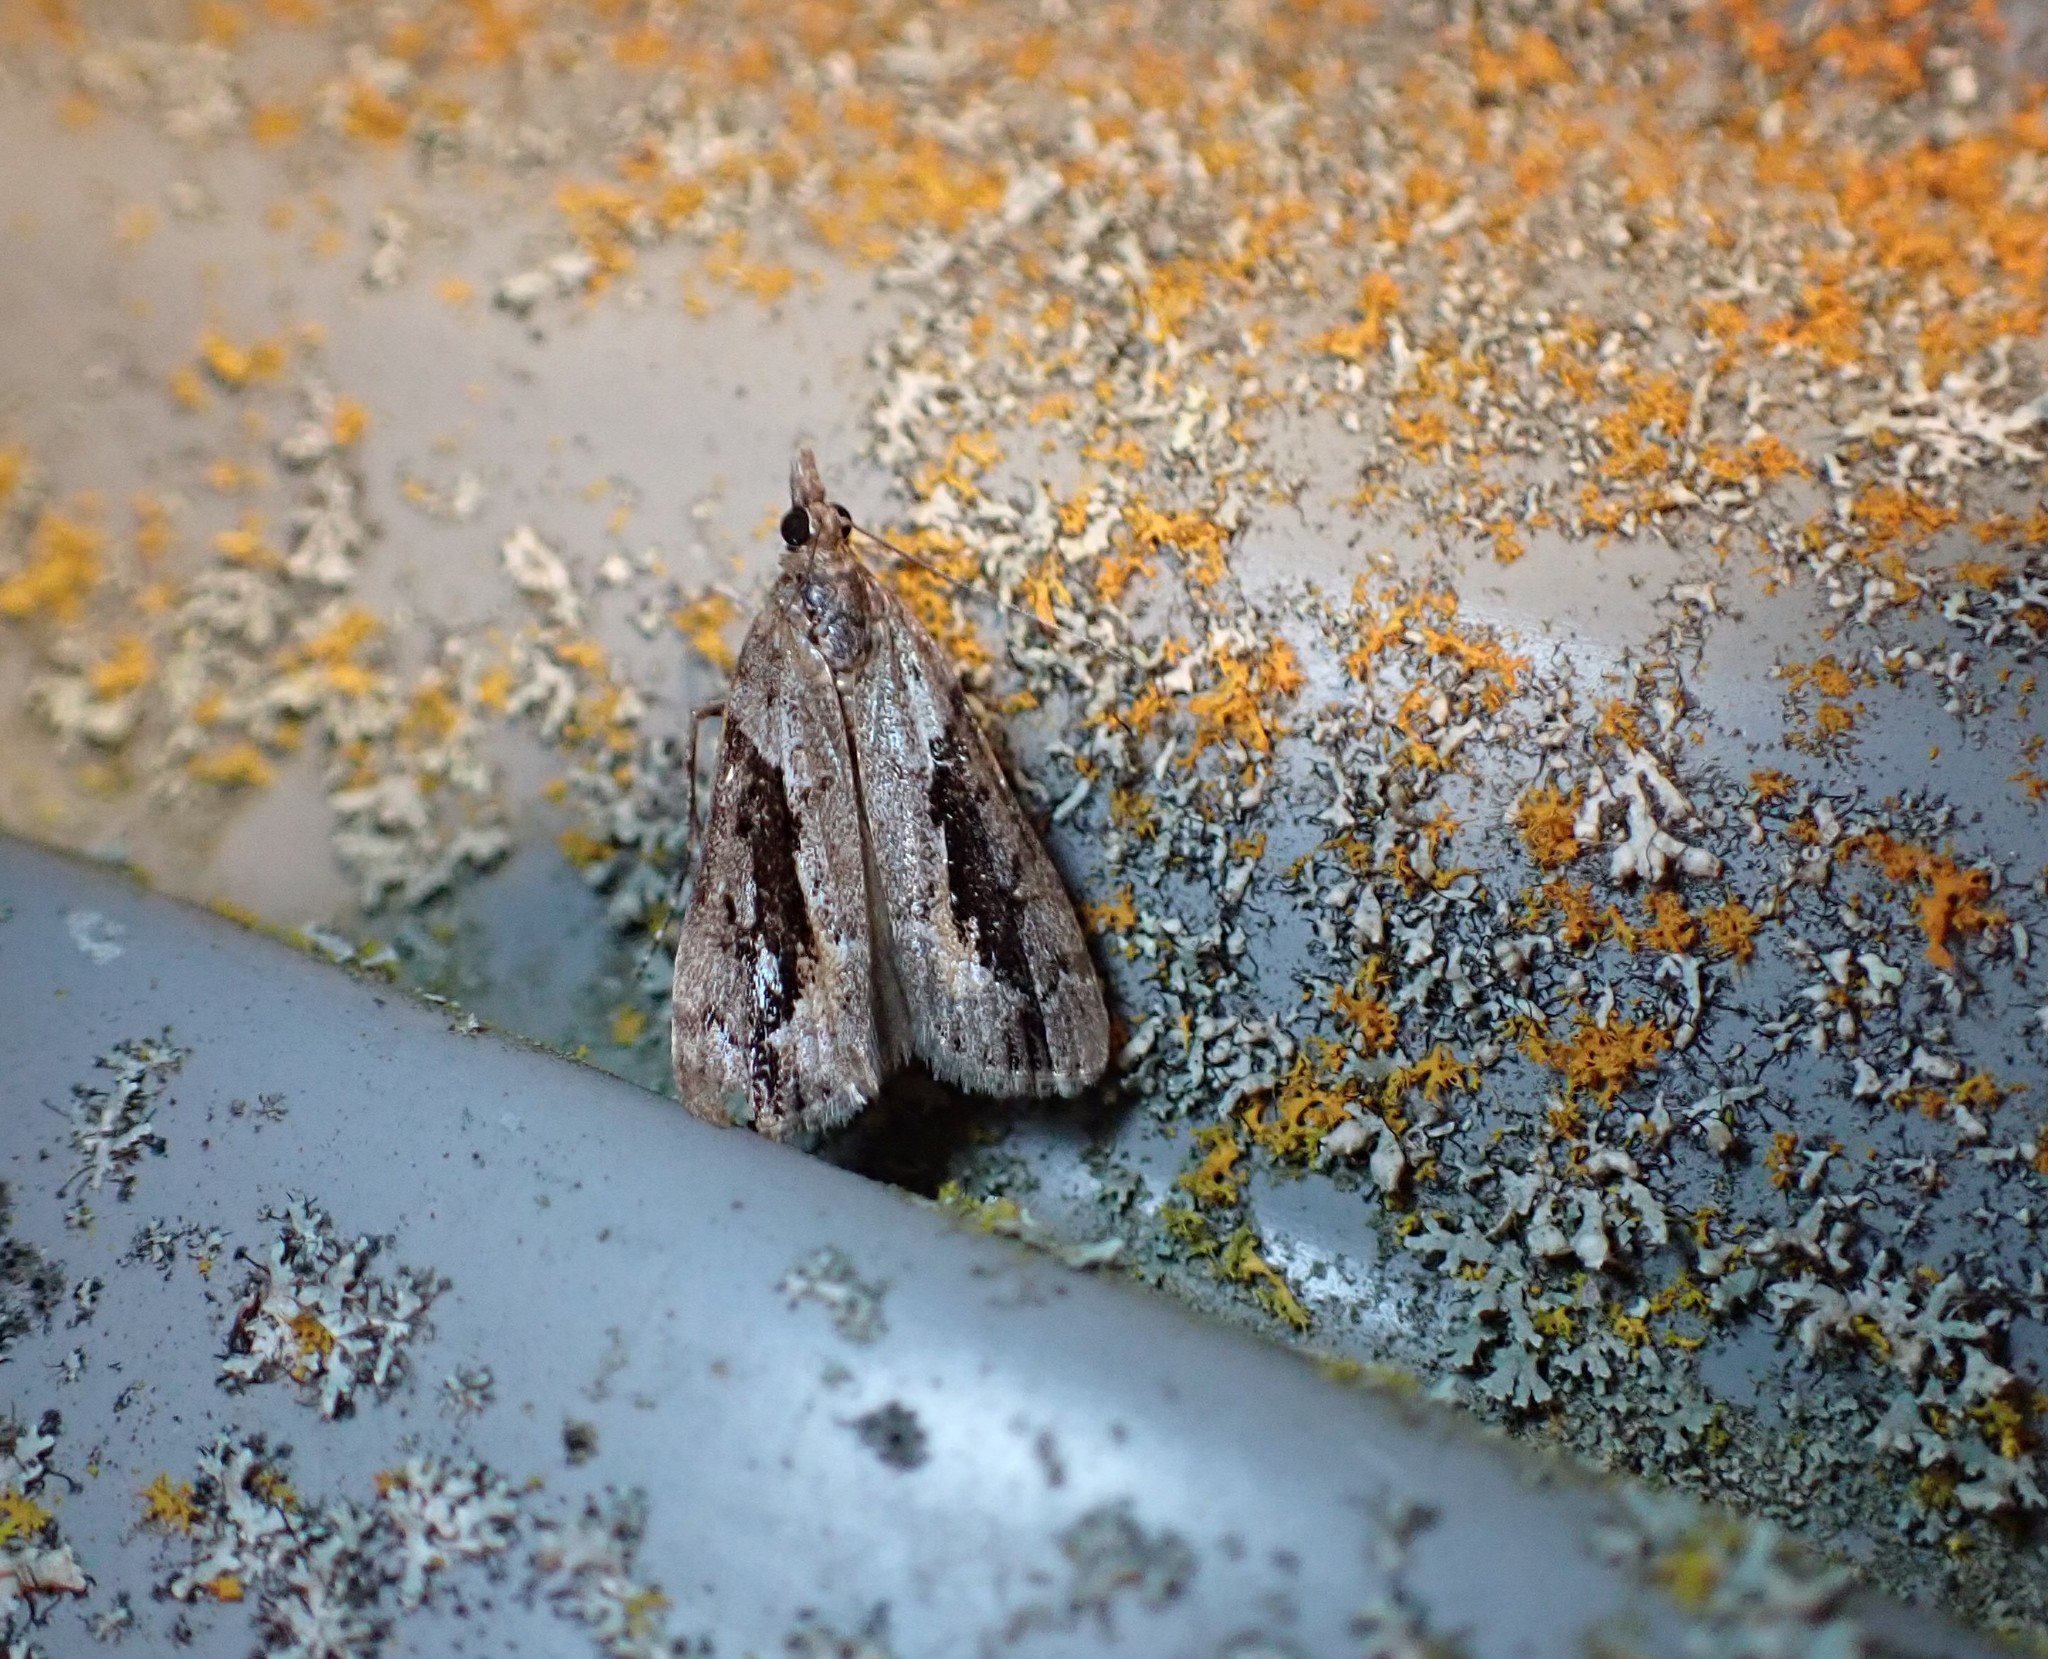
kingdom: Animalia
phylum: Arthropoda
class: Insecta
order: Lepidoptera
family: Crambidae
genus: Eudonia
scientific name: Eudonia submarginalis
